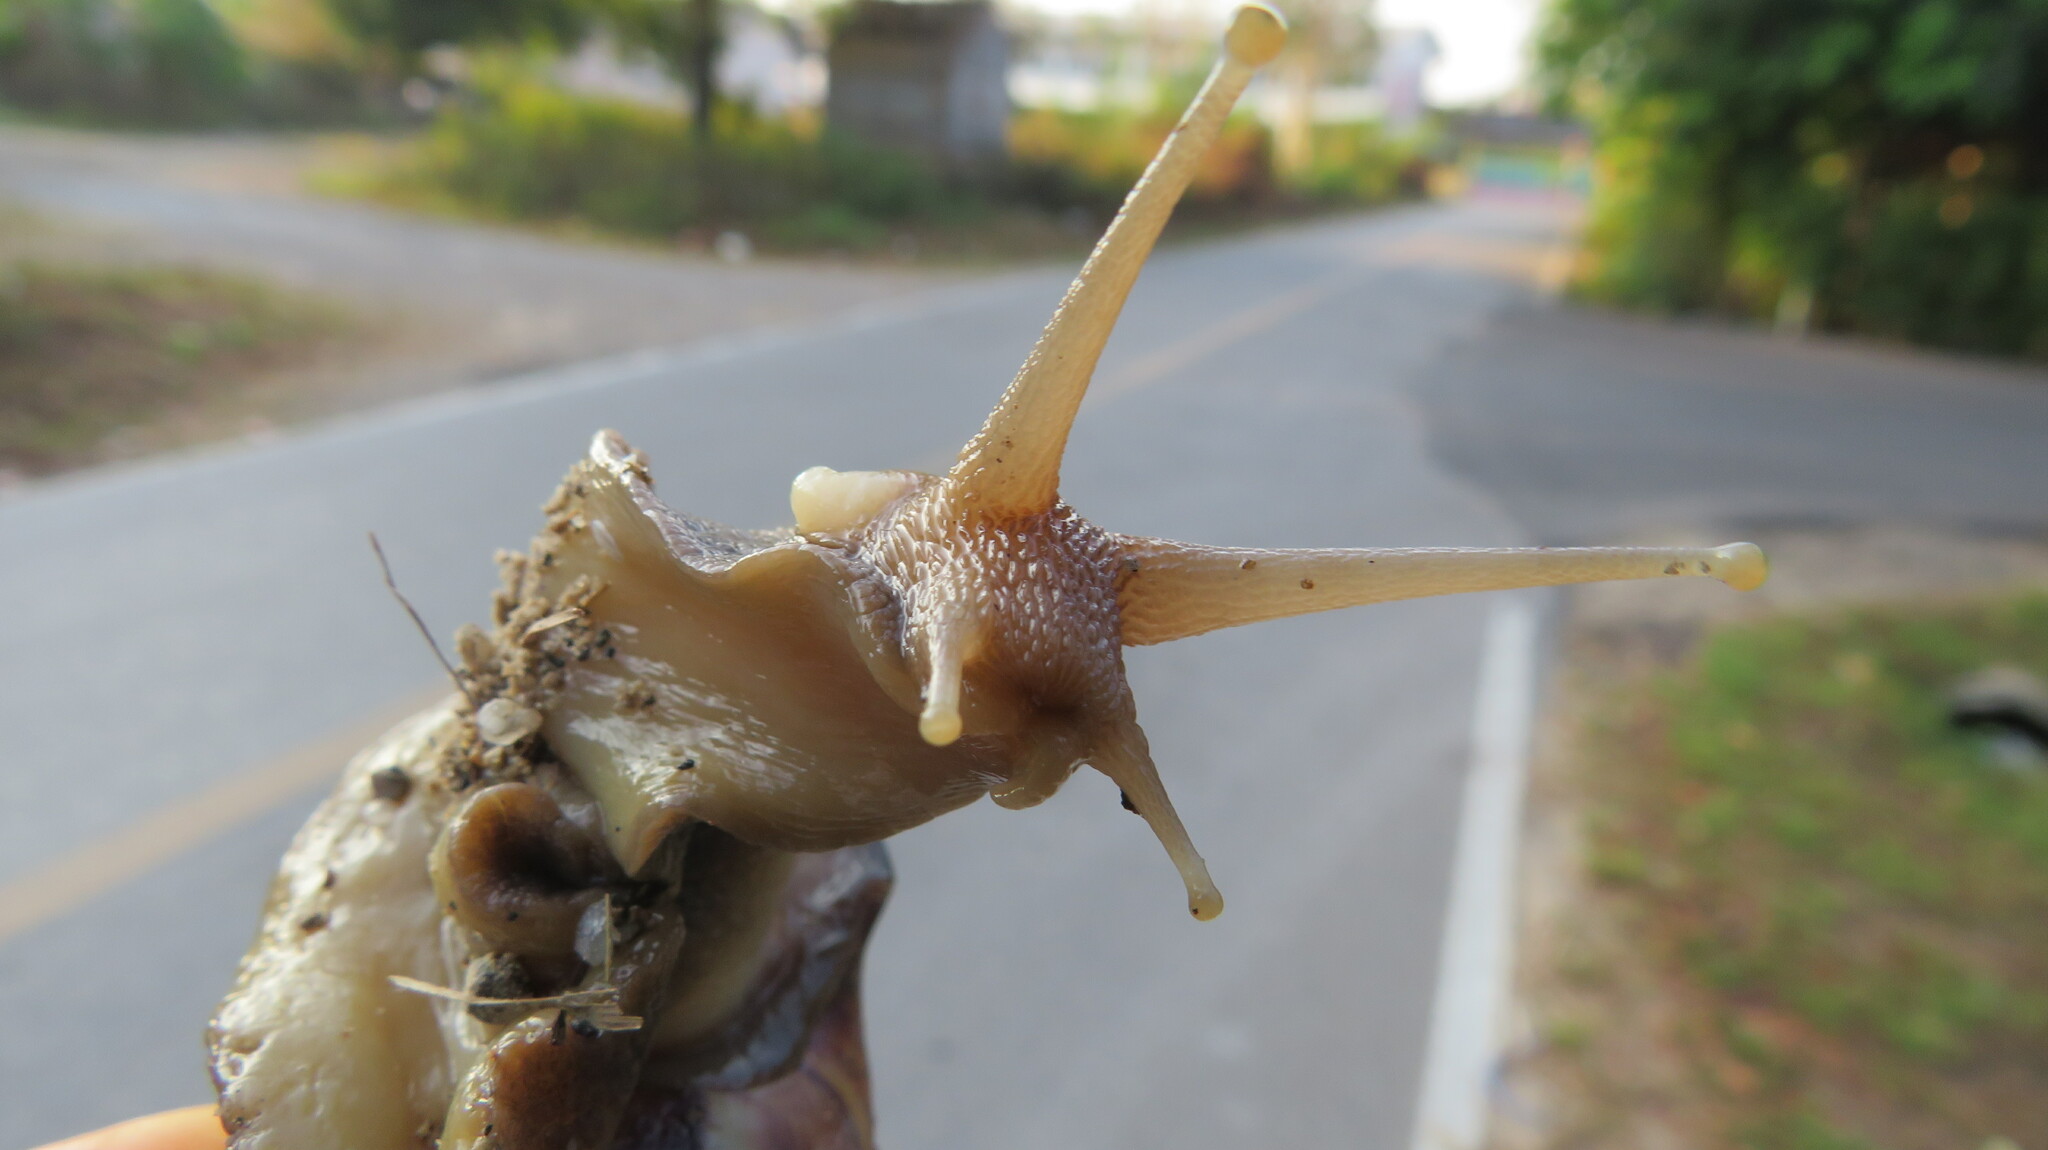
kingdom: Animalia
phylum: Mollusca
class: Gastropoda
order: Stylommatophora
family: Achatinidae
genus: Lissachatina
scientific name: Lissachatina fulica
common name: Giant african snail
